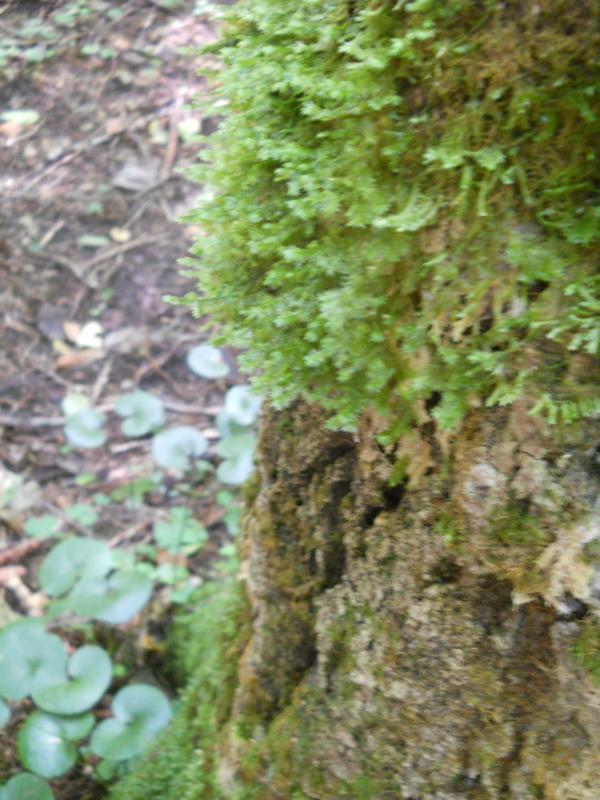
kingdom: Plantae
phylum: Bryophyta
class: Bryopsida
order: Hypnales
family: Neckeraceae
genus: Neckera
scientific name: Neckera pennata
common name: Feathery neckera
